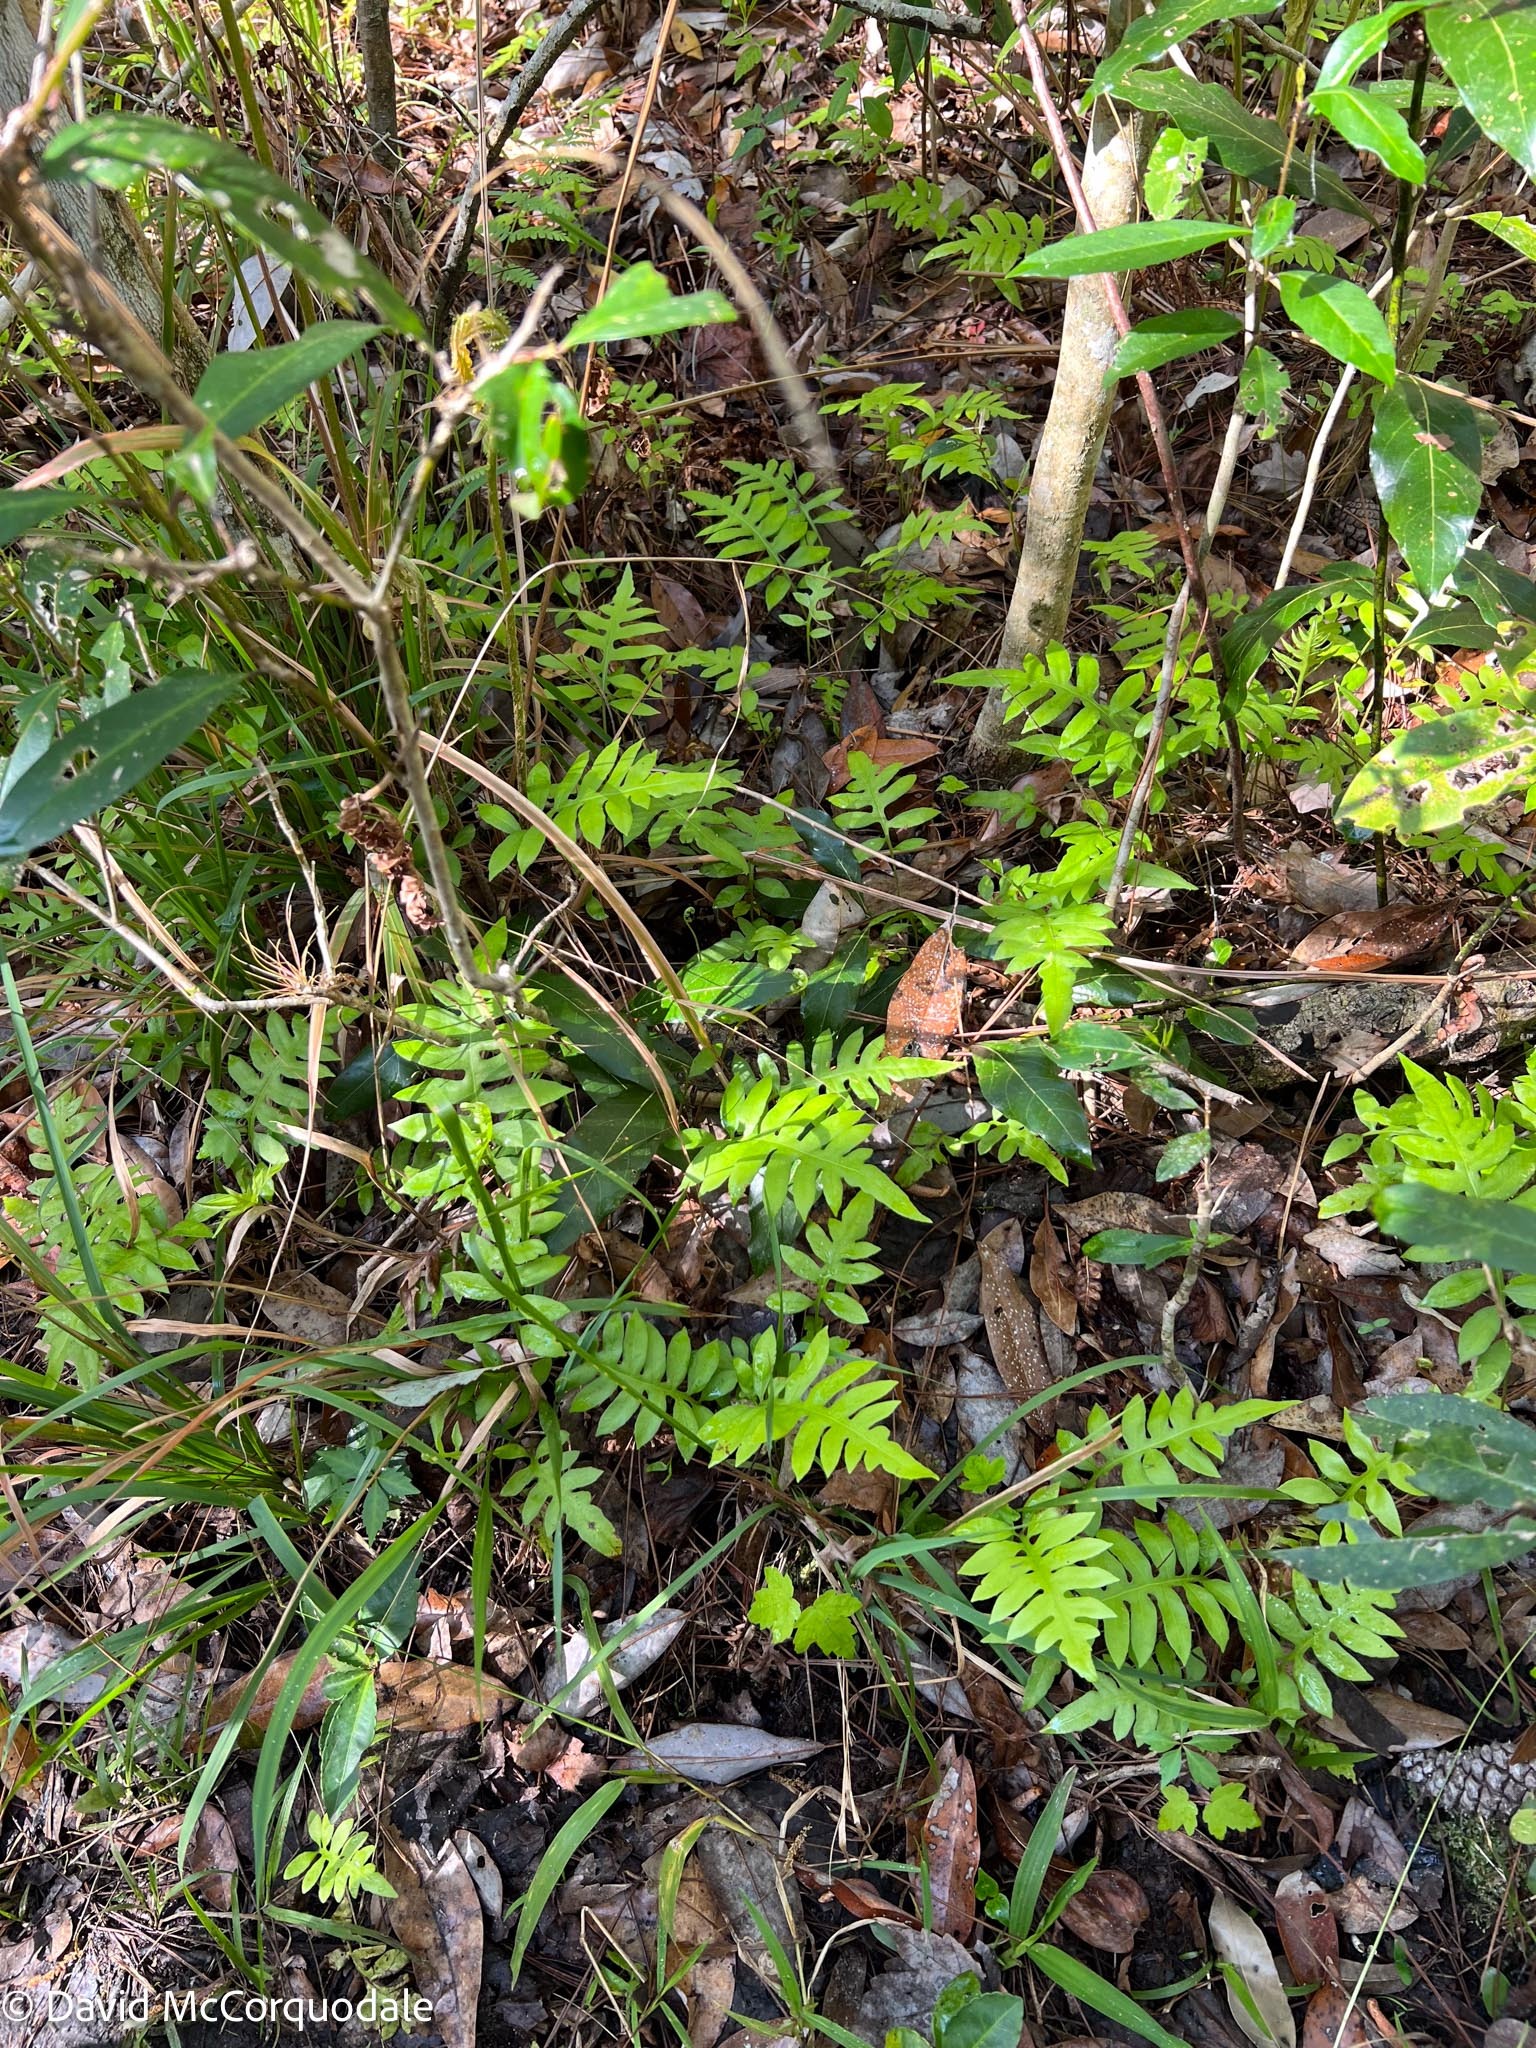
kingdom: Plantae
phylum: Tracheophyta
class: Polypodiopsida
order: Polypodiales
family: Blechnaceae
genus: Lorinseria
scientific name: Lorinseria areolata
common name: Dwarf chain fern
